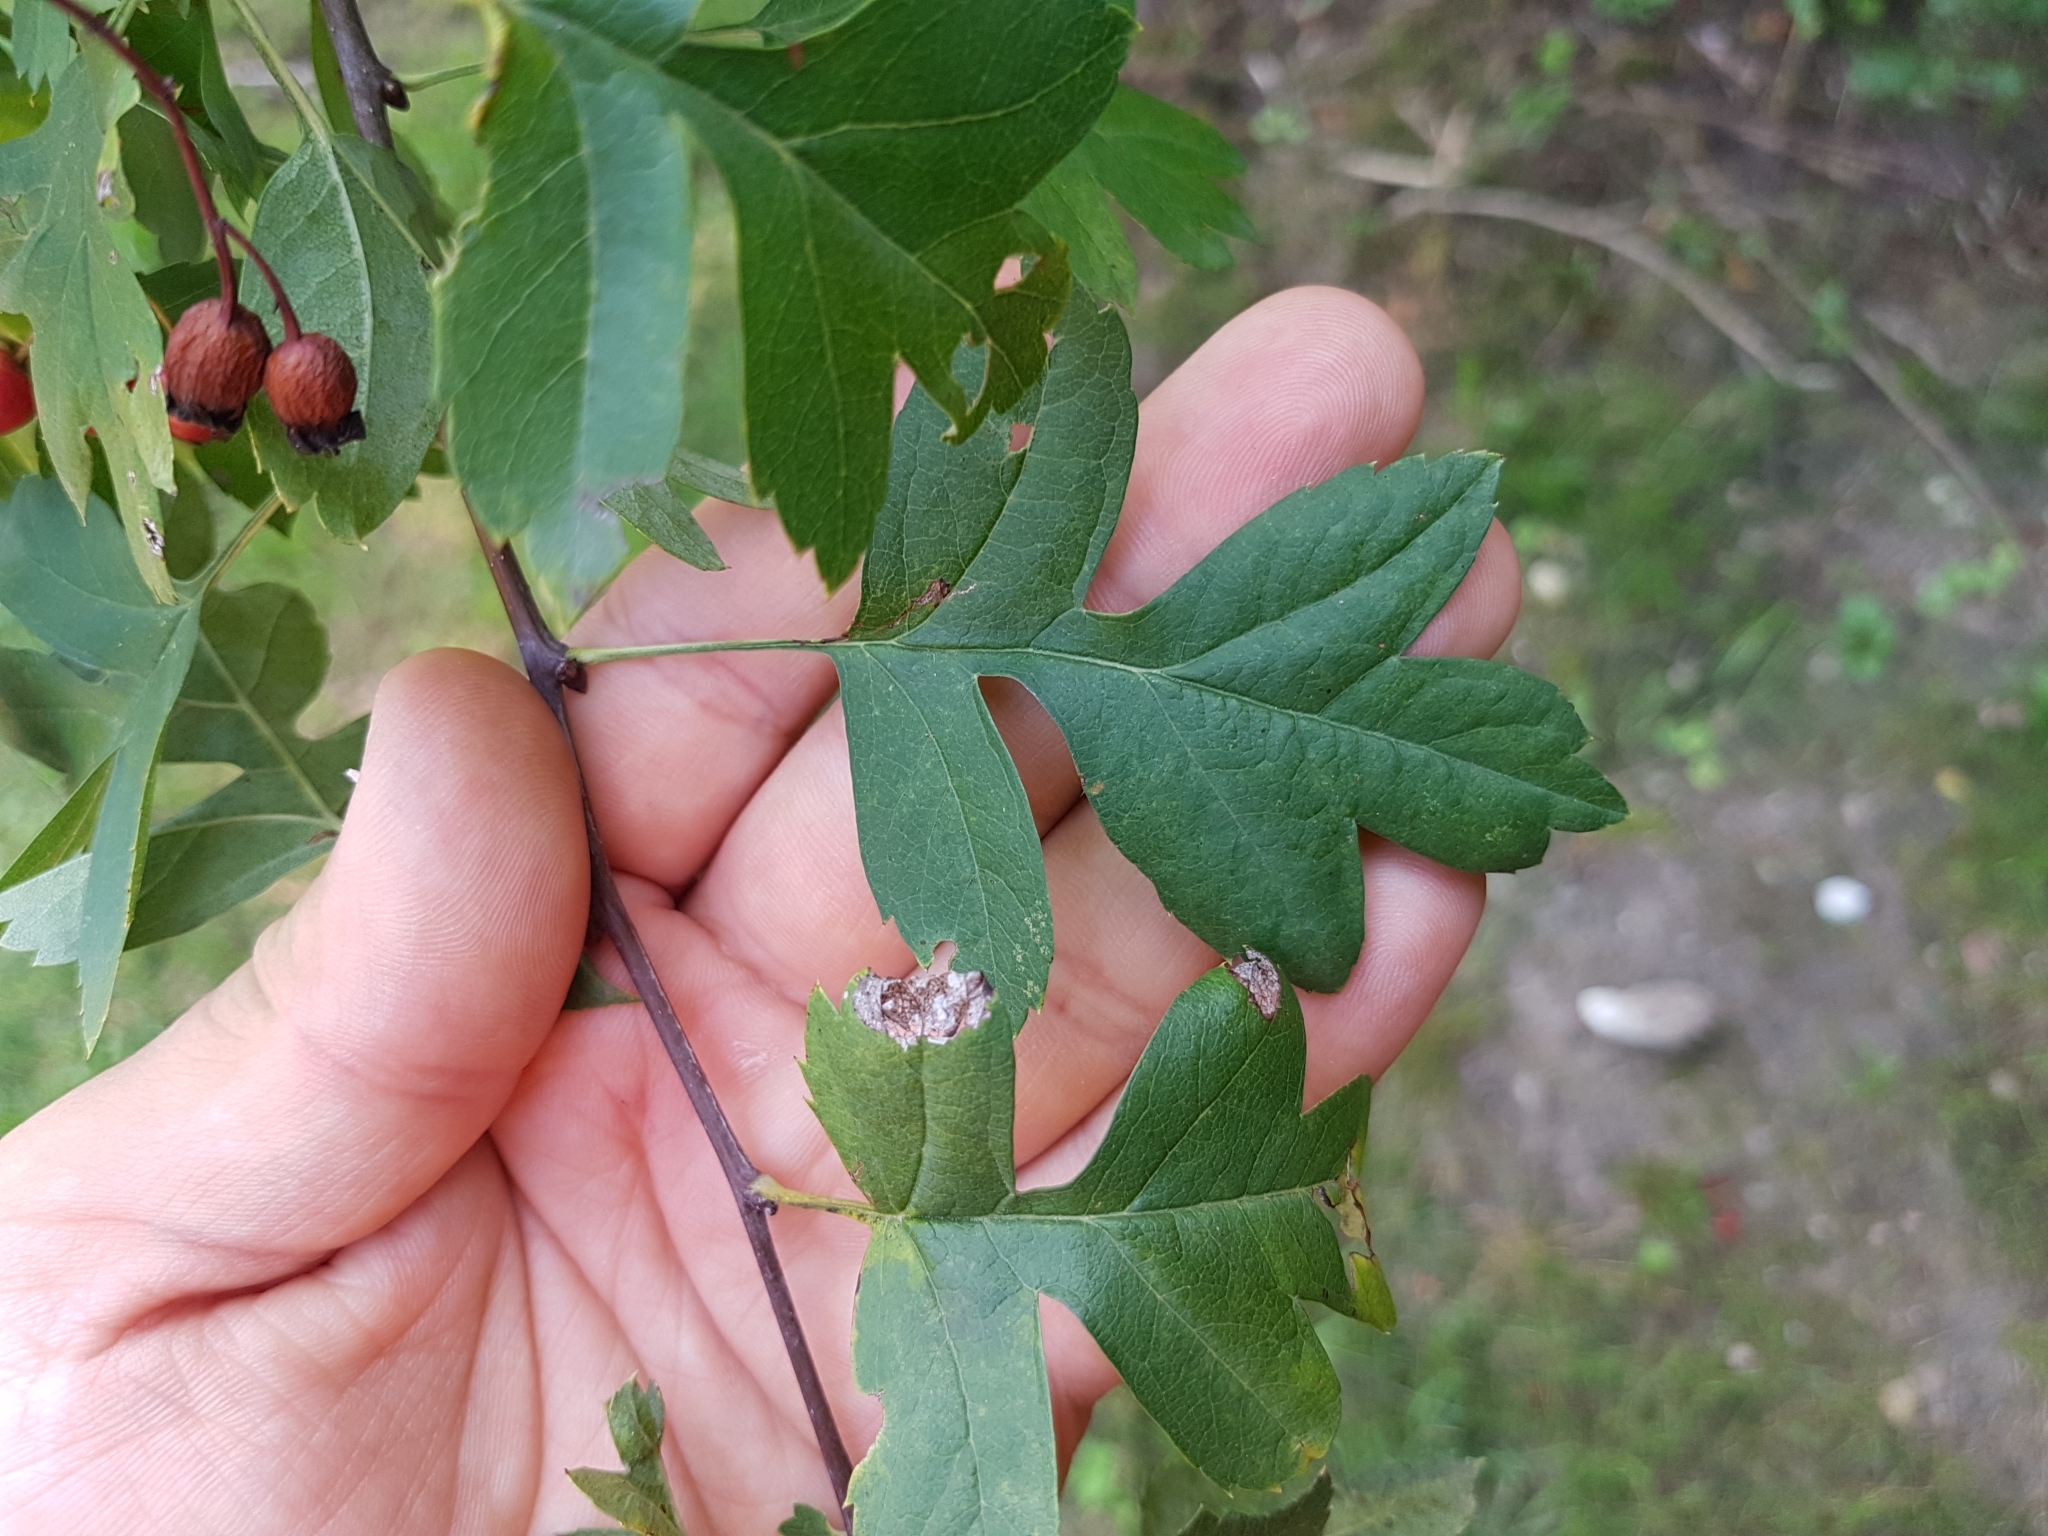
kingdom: Plantae
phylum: Tracheophyta
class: Magnoliopsida
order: Rosales
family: Rosaceae
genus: Crataegus
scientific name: Crataegus monogyna
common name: Hawthorn
